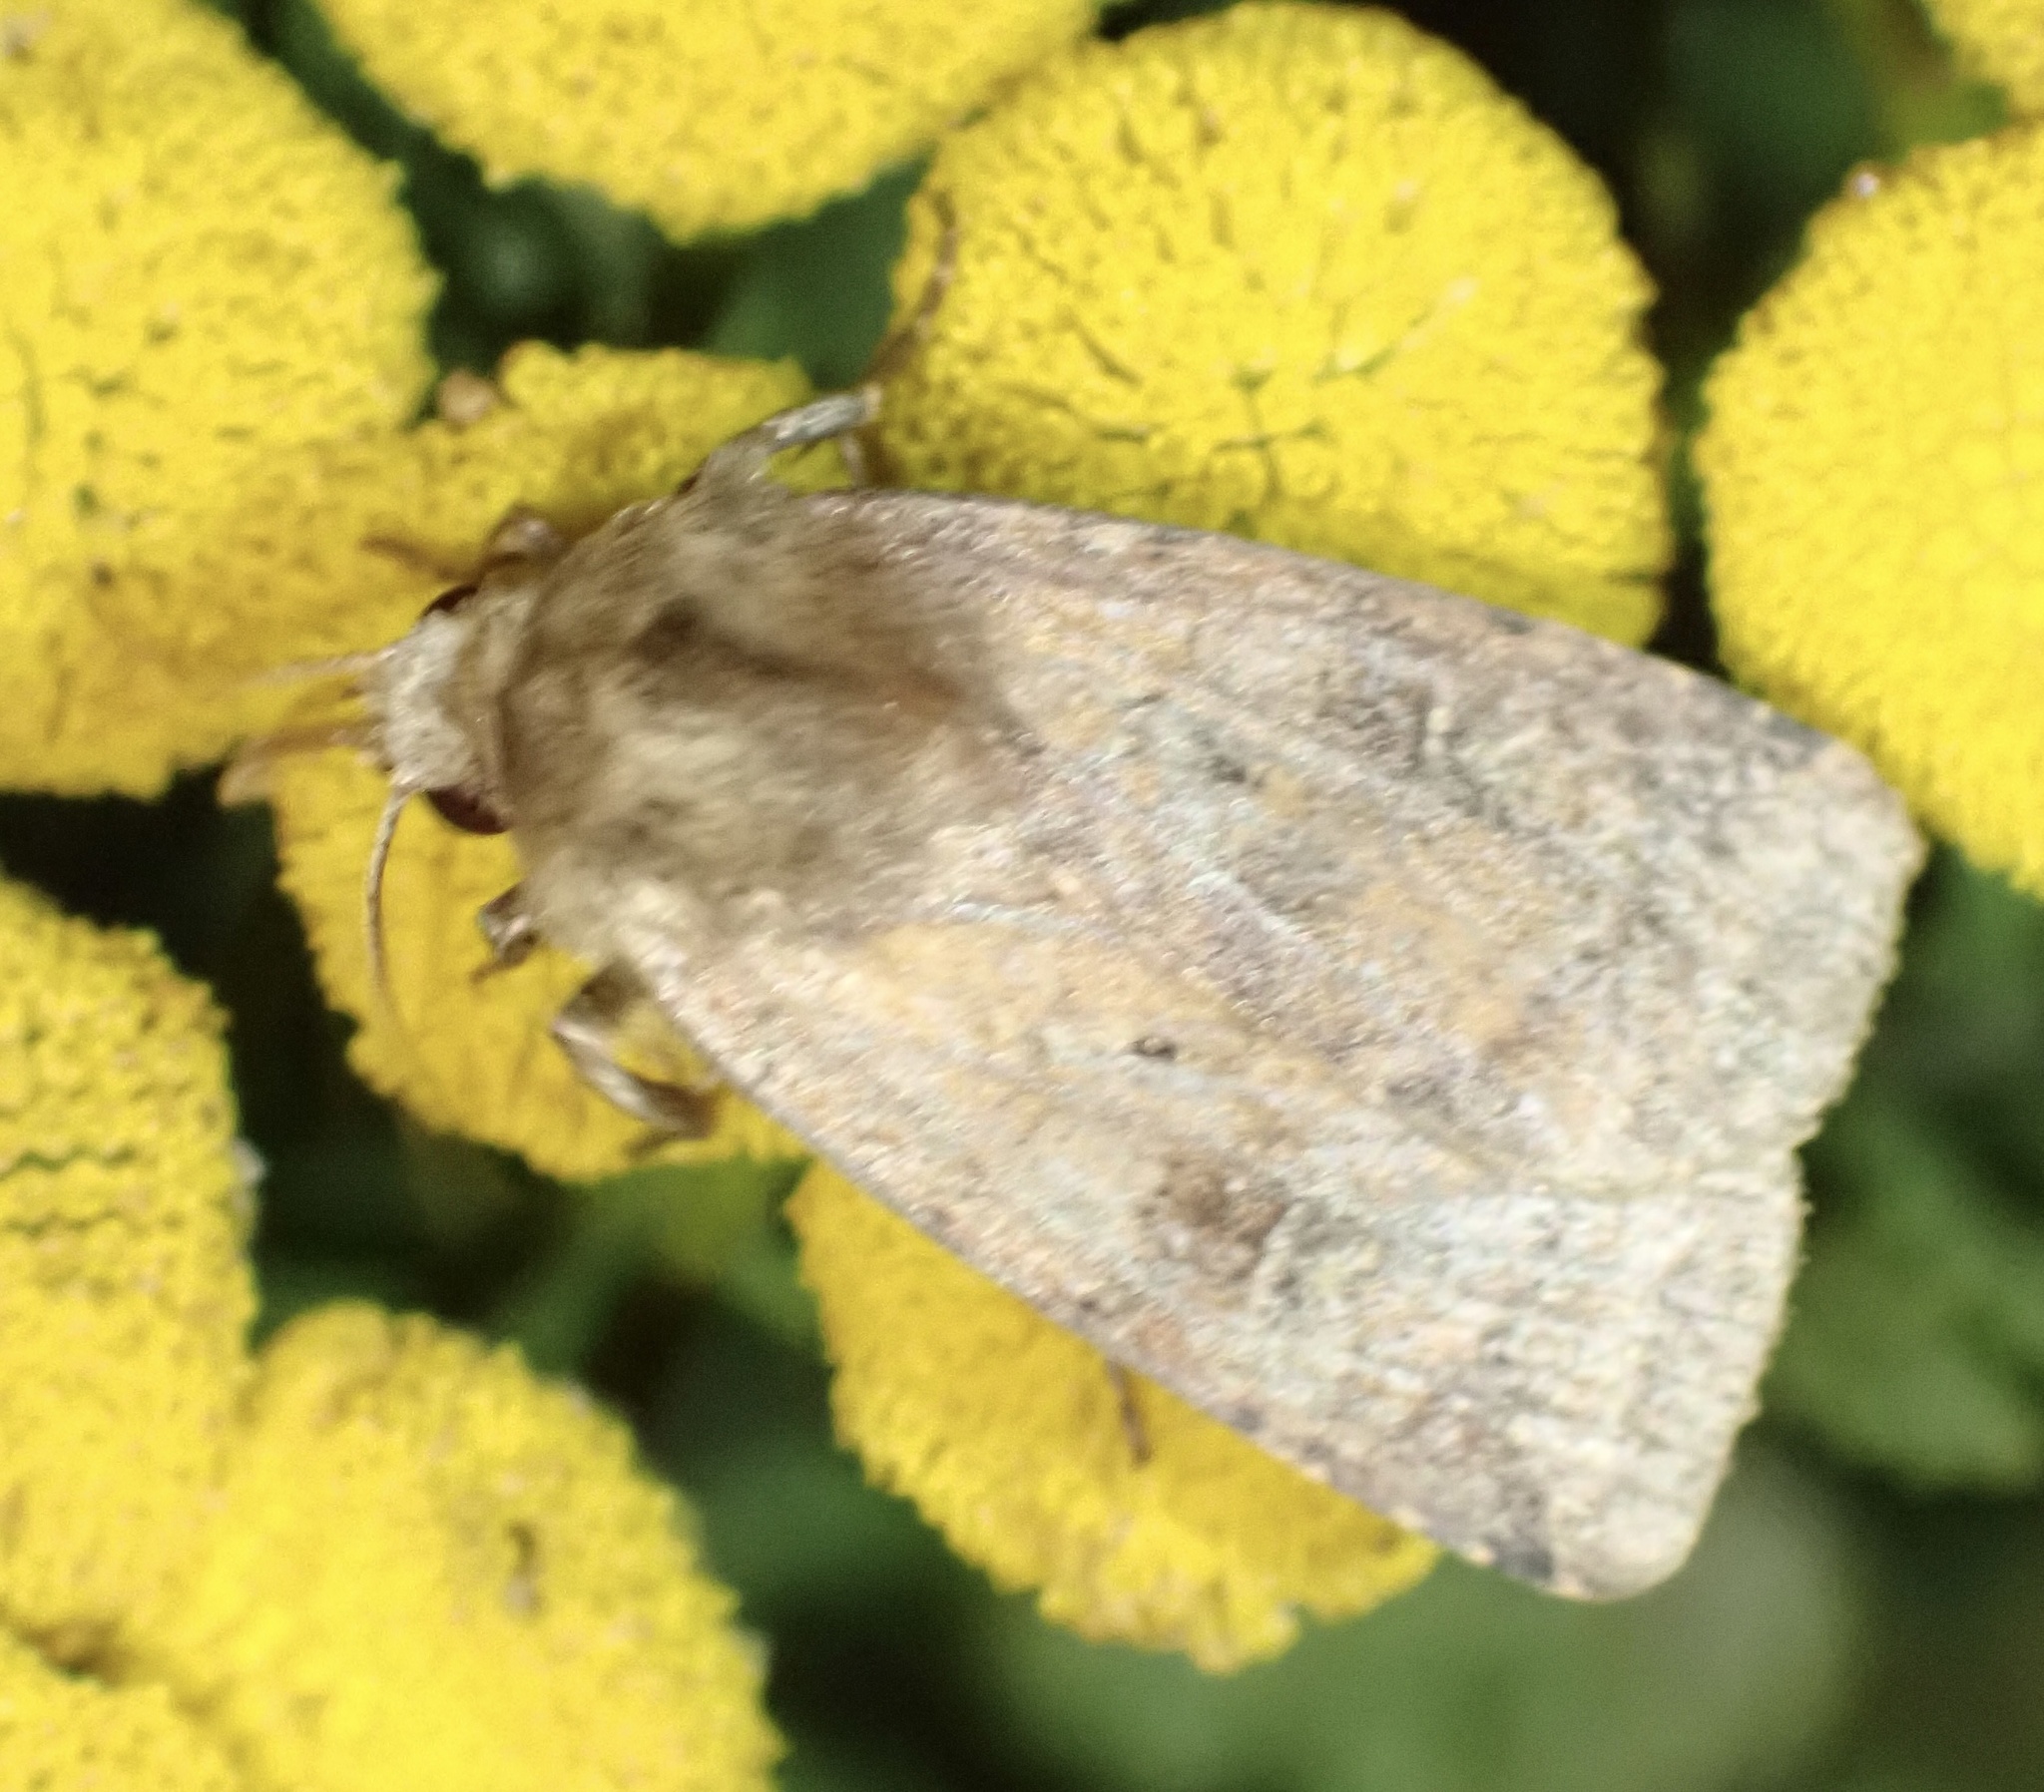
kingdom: Animalia
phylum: Arthropoda
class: Insecta
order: Lepidoptera
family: Noctuidae
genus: Diarsia
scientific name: Diarsia rubi
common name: Small square-spot
